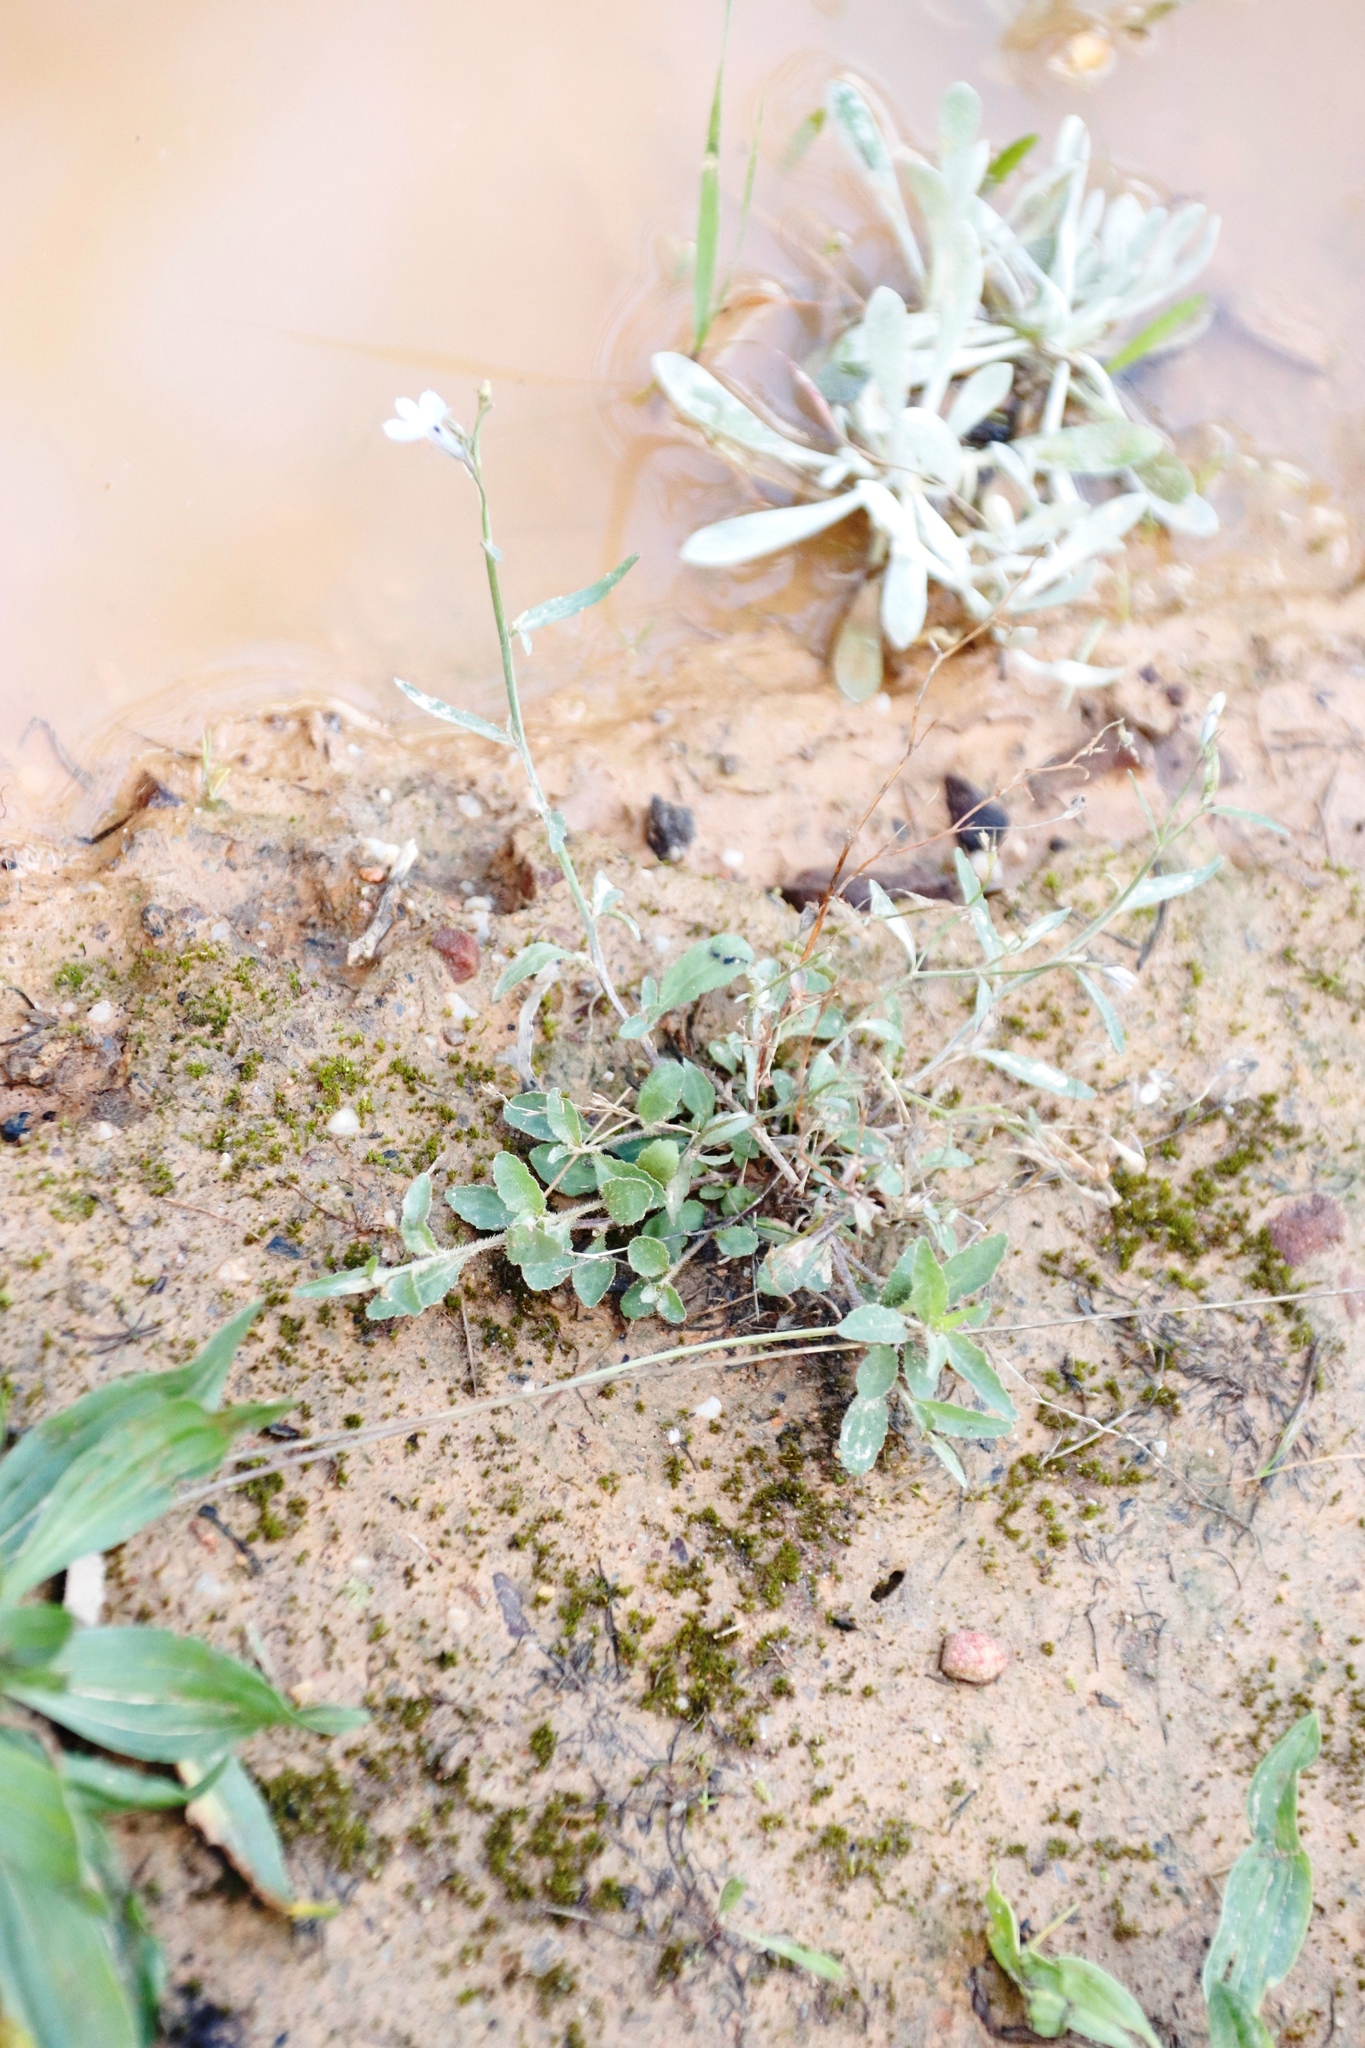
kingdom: Plantae
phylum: Tracheophyta
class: Magnoliopsida
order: Asterales
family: Campanulaceae
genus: Lobelia
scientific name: Lobelia erinus
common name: Edging lobelia
